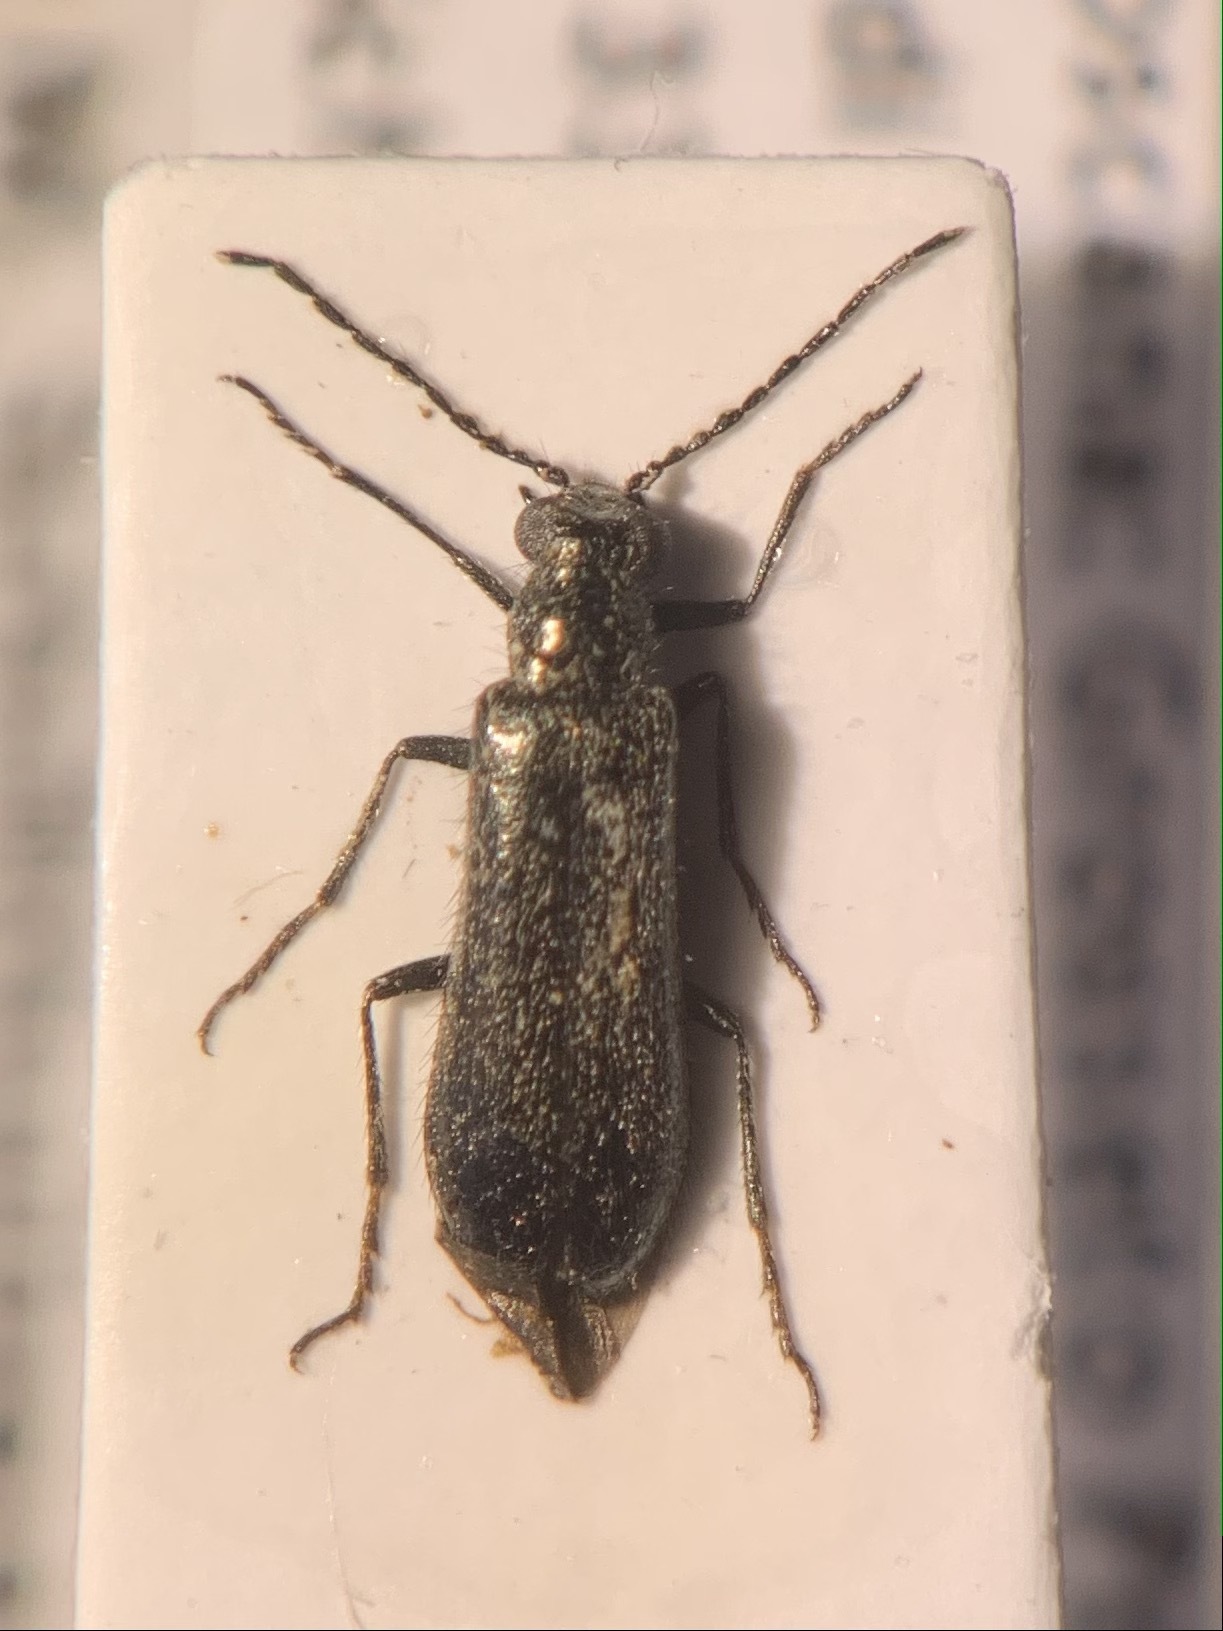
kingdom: Animalia
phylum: Arthropoda
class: Insecta
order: Coleoptera
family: Melyridae
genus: Dasytes
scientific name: Dasytes aeneiventris
